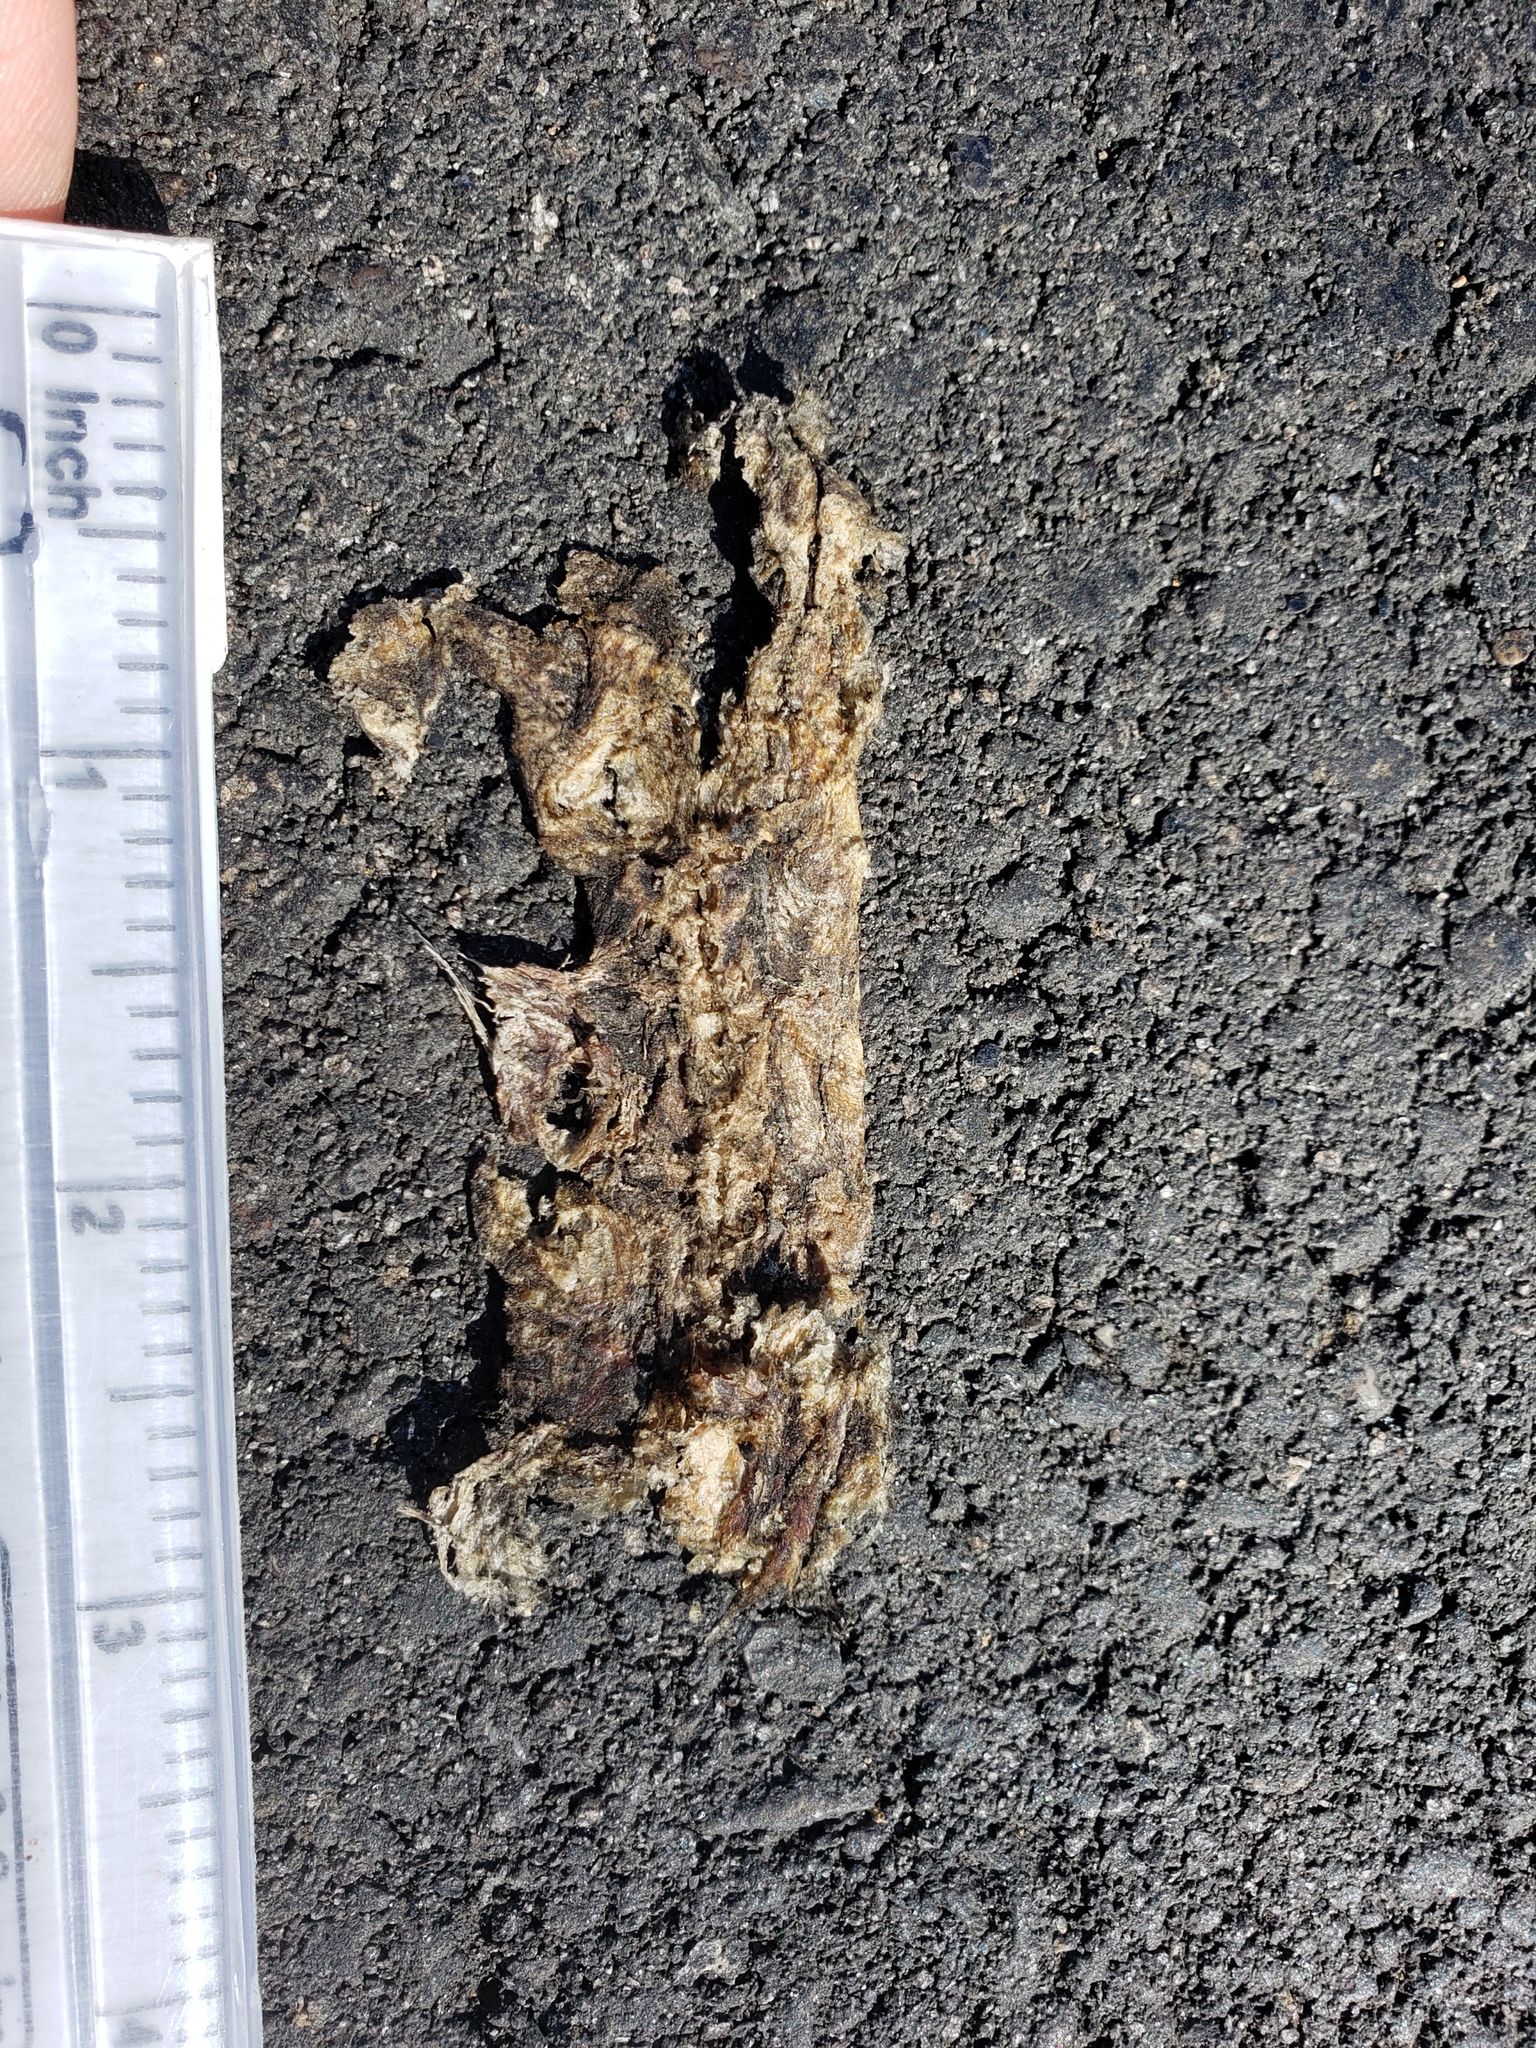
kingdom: Animalia
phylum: Chordata
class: Amphibia
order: Caudata
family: Salamandridae
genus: Taricha
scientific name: Taricha
